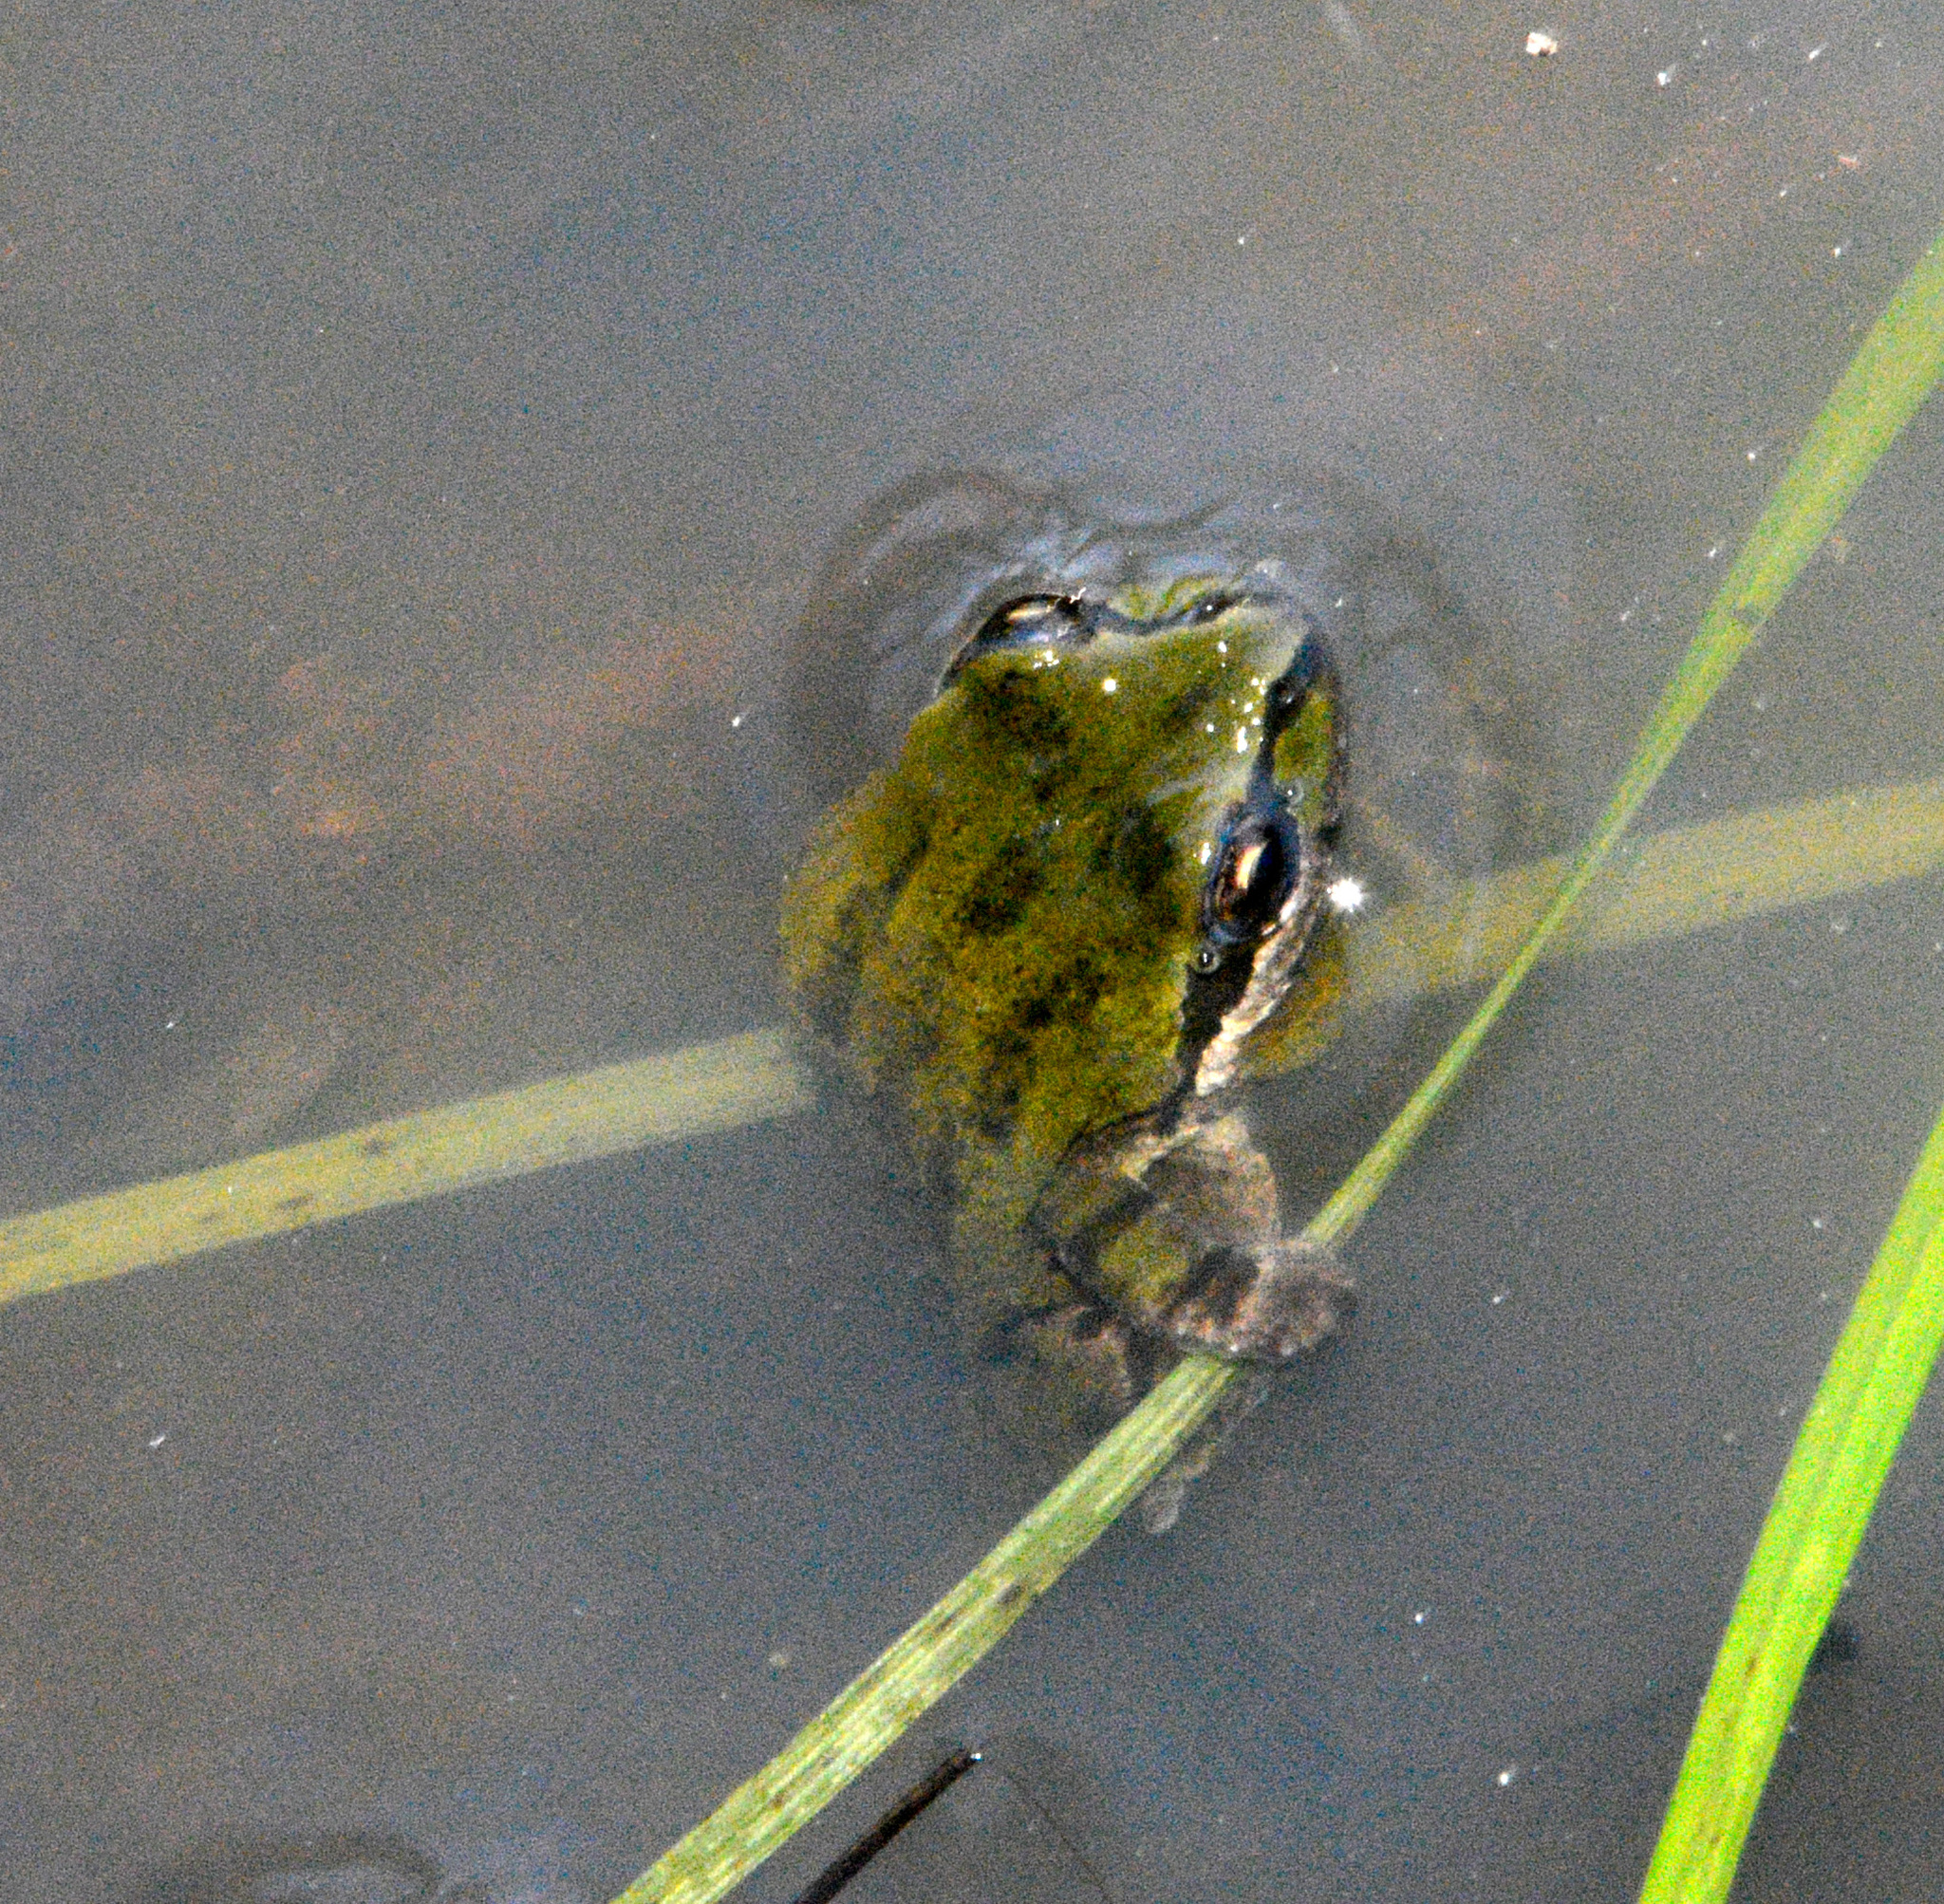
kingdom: Animalia
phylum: Chordata
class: Amphibia
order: Anura
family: Hylidae
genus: Pseudacris
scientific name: Pseudacris regilla
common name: Pacific chorus frog
